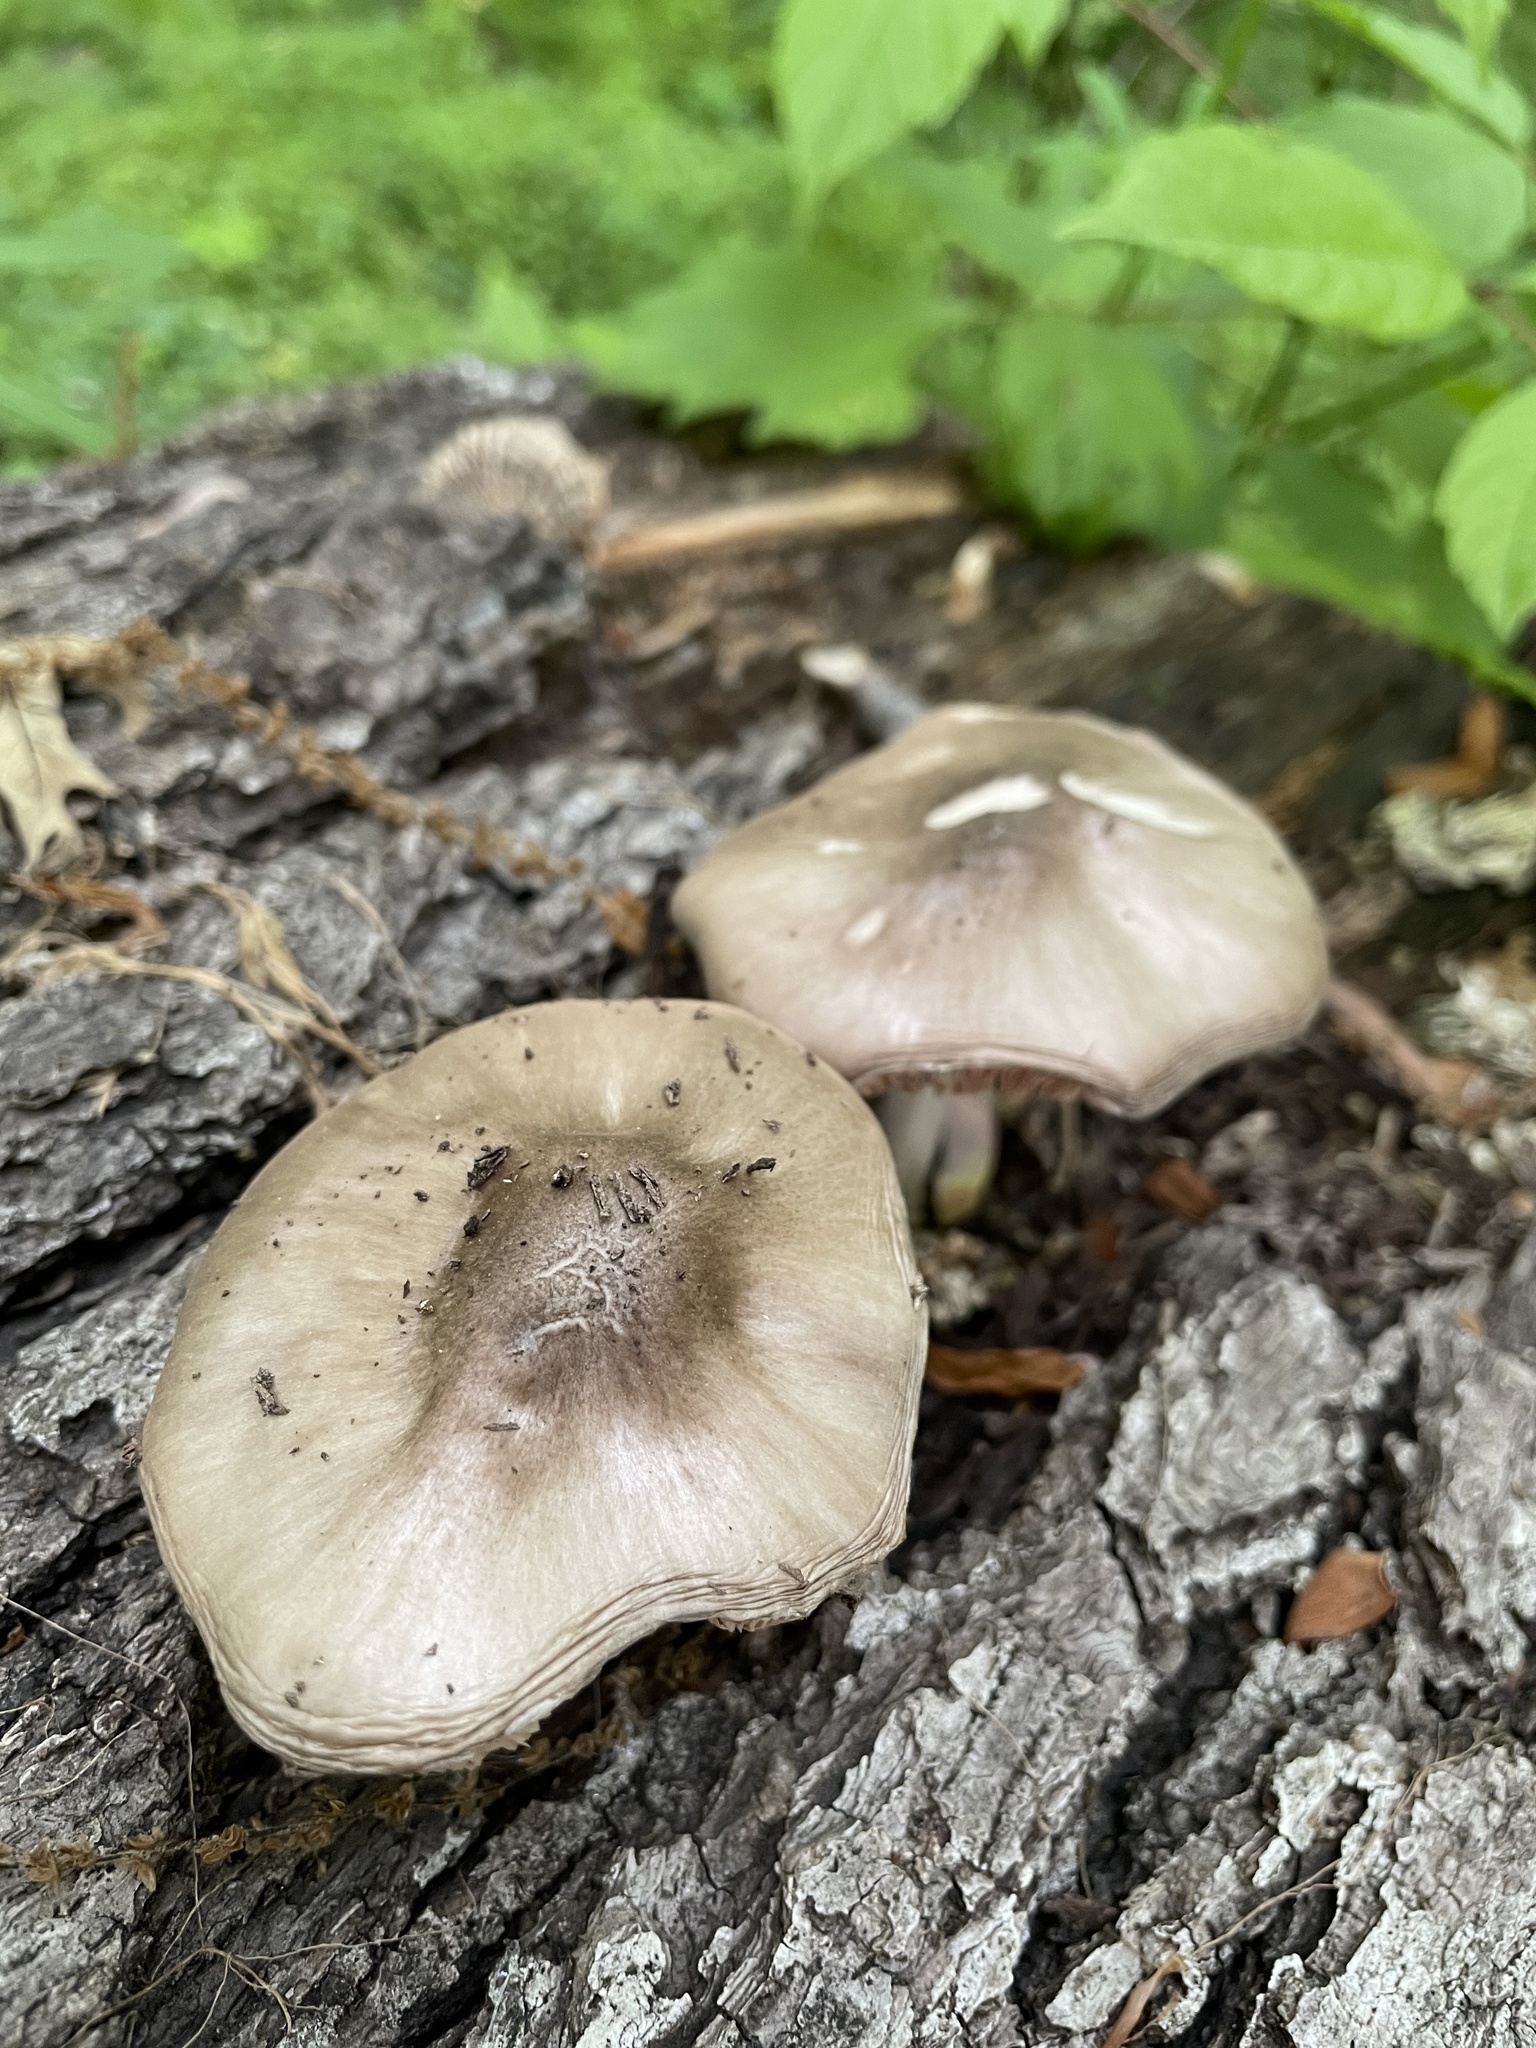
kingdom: Fungi
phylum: Basidiomycota
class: Agaricomycetes
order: Agaricales
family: Pluteaceae
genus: Pluteus
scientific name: Pluteus cervinus
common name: Deer shield
